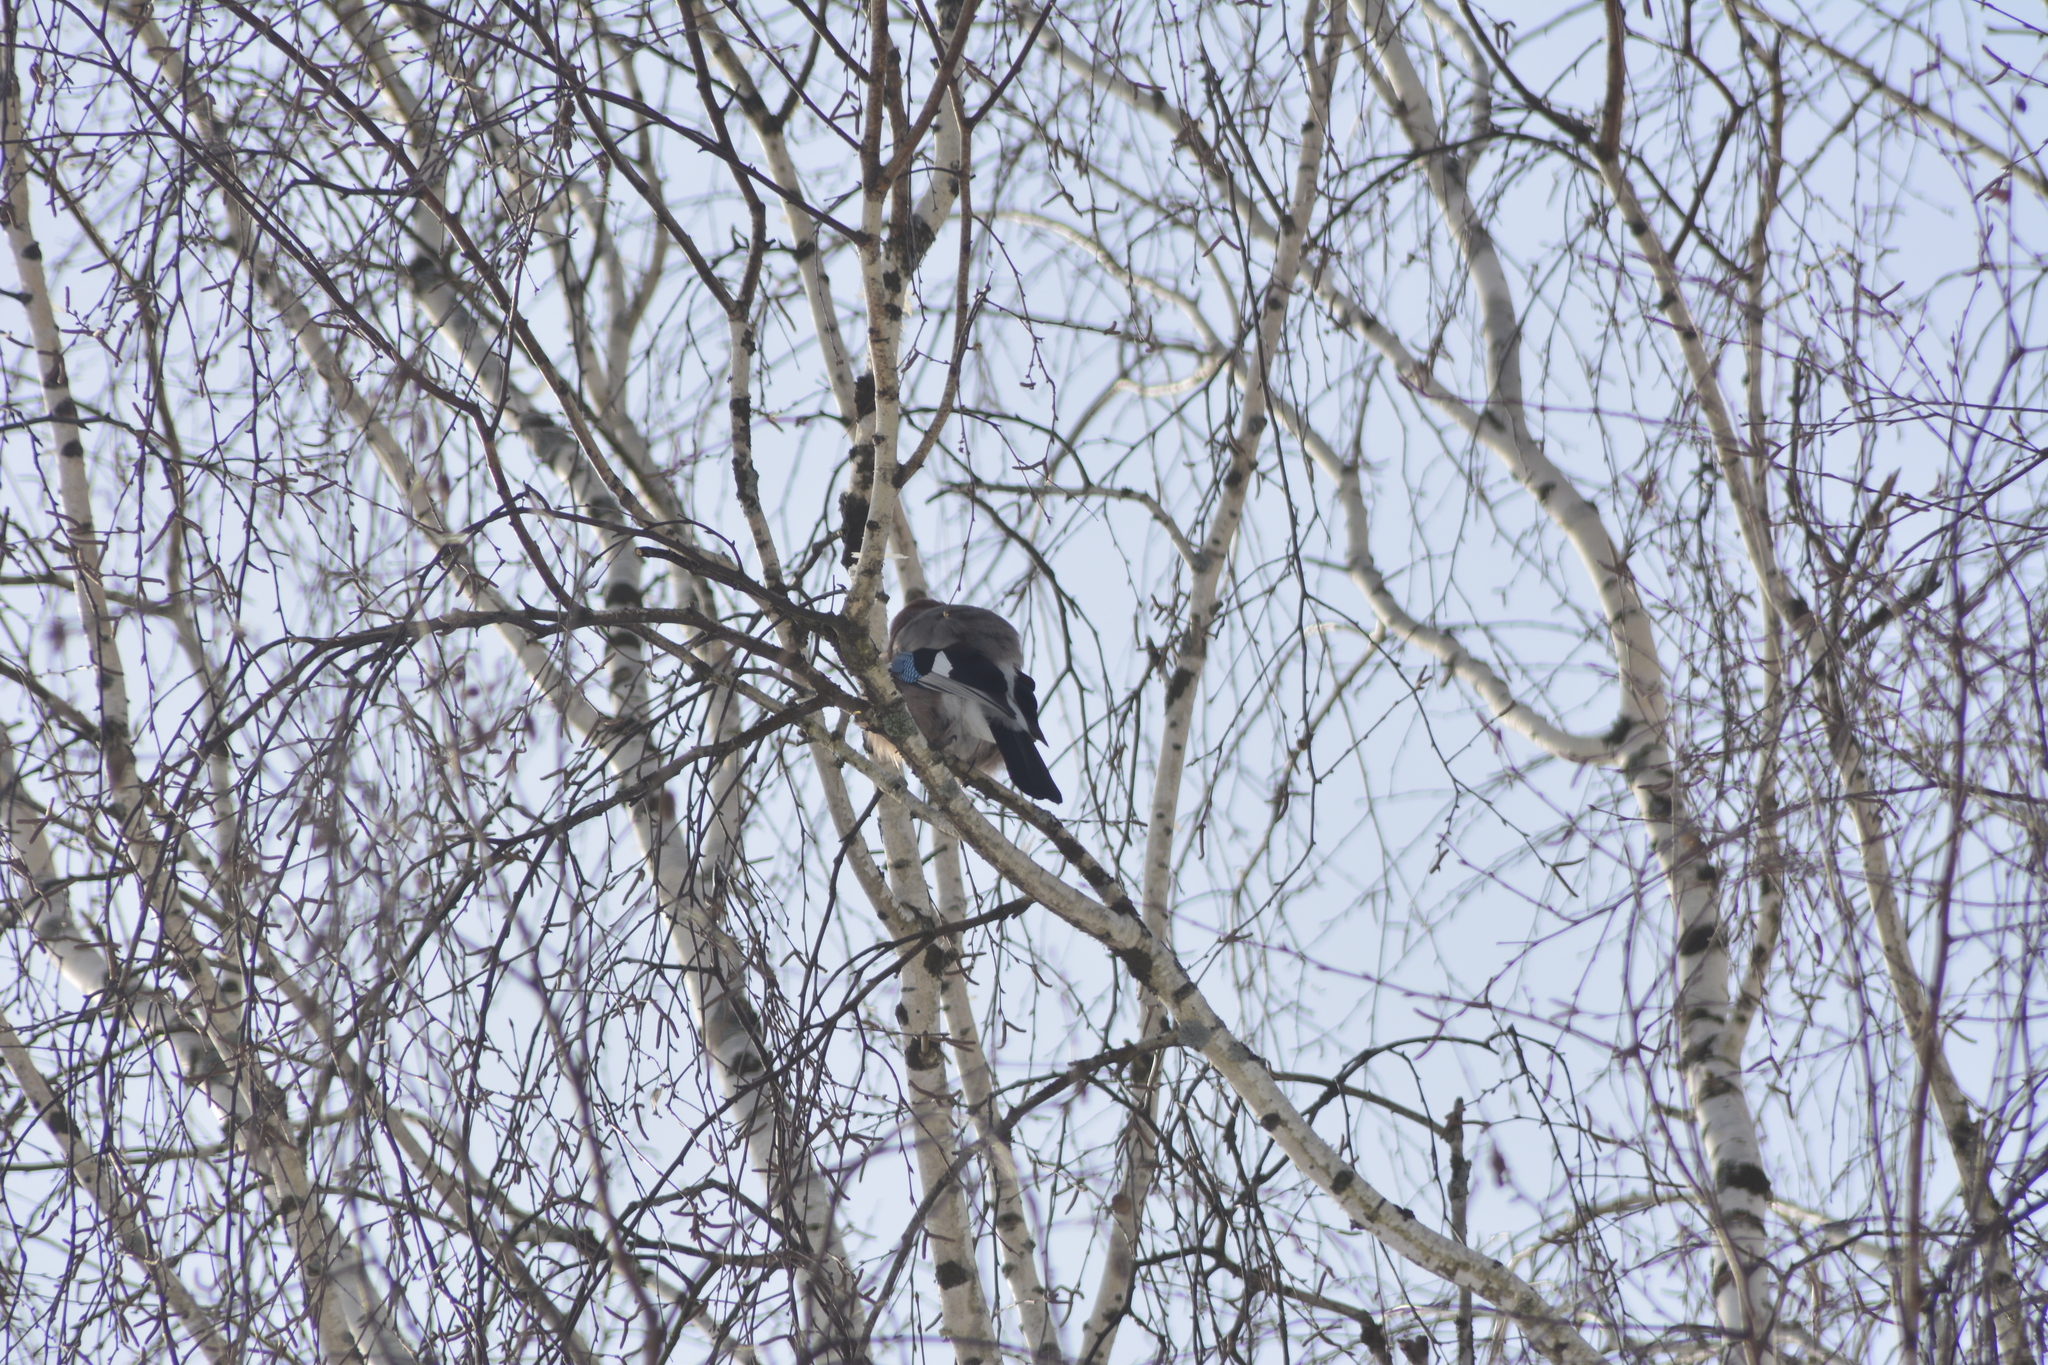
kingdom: Animalia
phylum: Chordata
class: Aves
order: Passeriformes
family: Corvidae
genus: Garrulus
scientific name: Garrulus glandarius
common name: Eurasian jay
